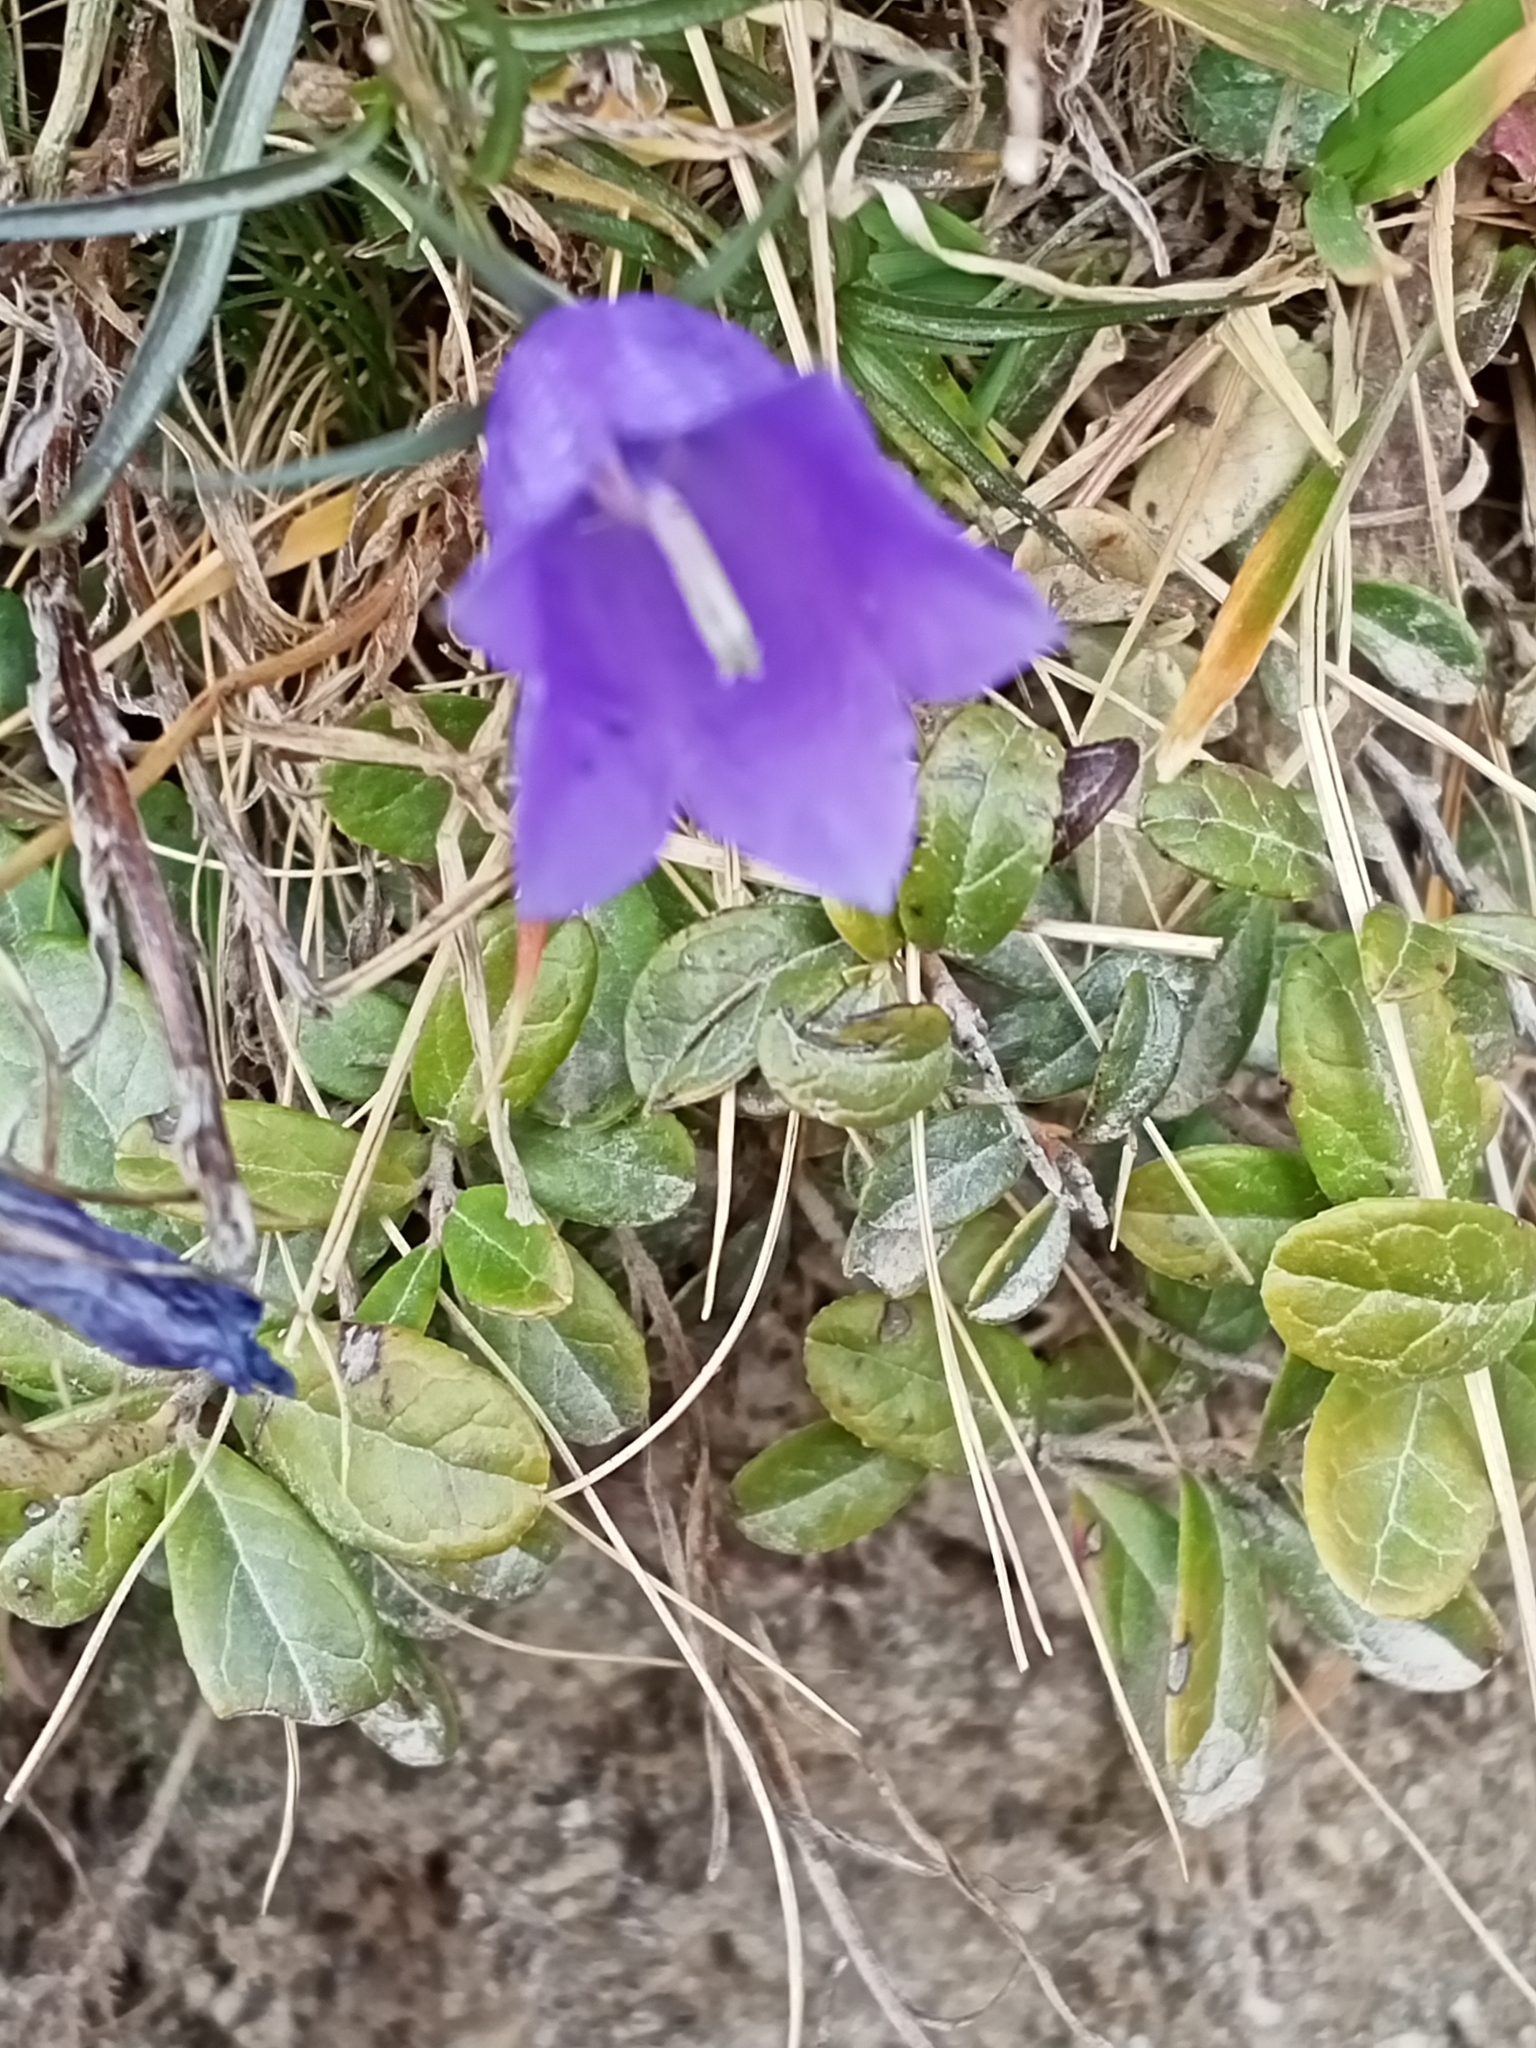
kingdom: Plantae
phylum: Tracheophyta
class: Magnoliopsida
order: Asterales
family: Campanulaceae
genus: Campanula
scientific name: Campanula scheuchzeri
